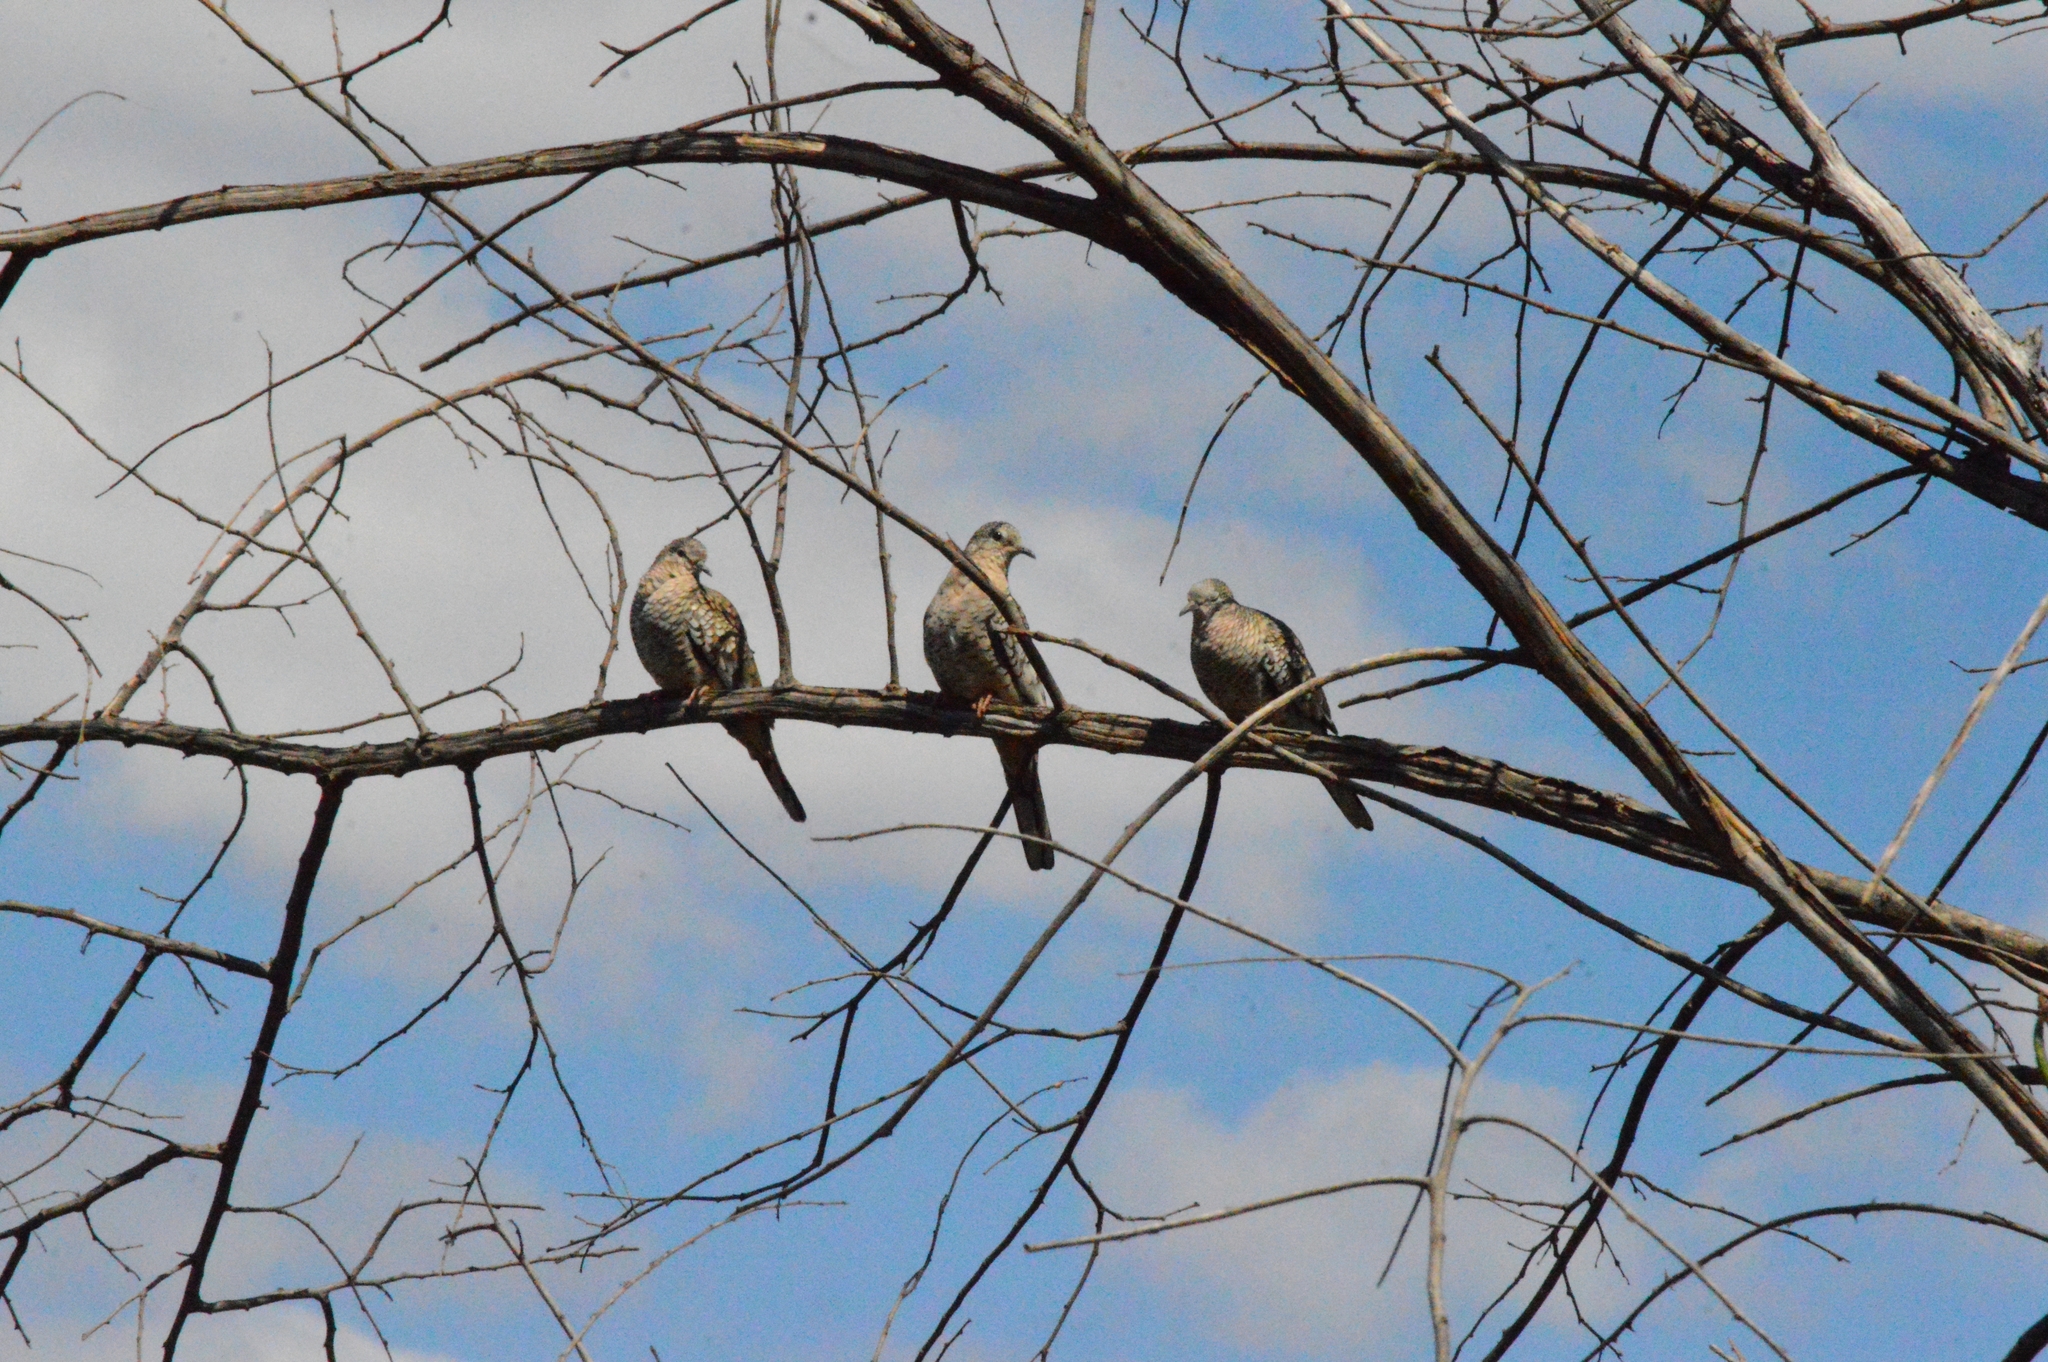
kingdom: Animalia
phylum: Chordata
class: Aves
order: Columbiformes
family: Columbidae
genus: Columbina
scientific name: Columbina squammata
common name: Scaled dove
